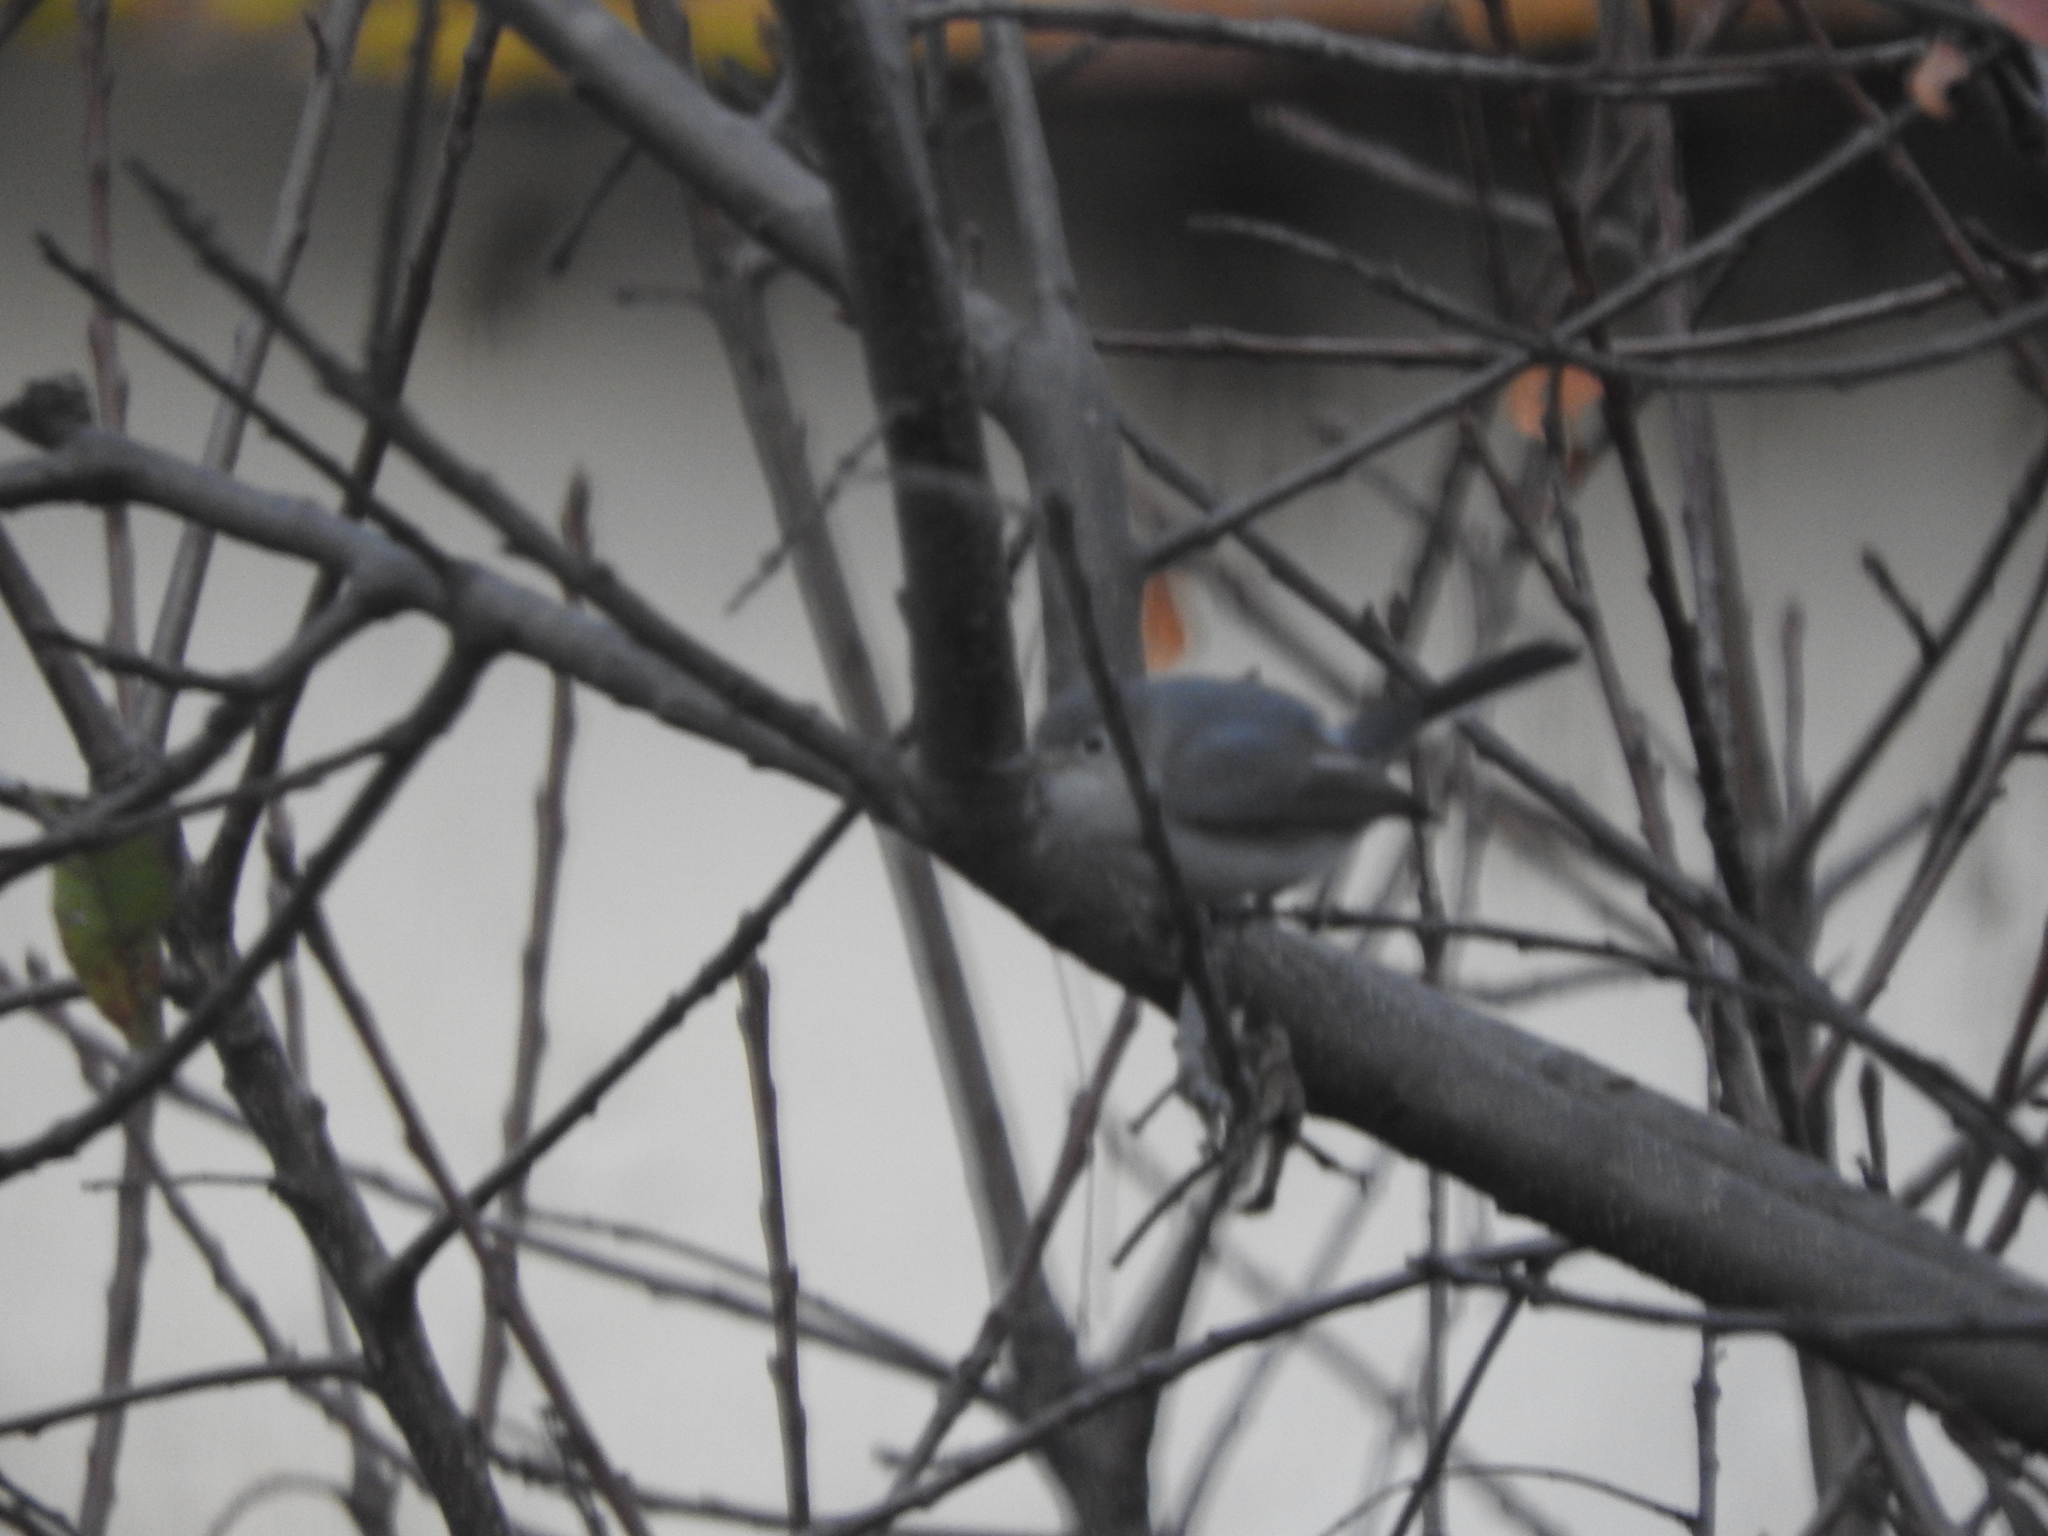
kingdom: Animalia
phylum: Chordata
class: Aves
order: Passeriformes
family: Polioptilidae
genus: Polioptila
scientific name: Polioptila caerulea
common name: Blue-gray gnatcatcher
